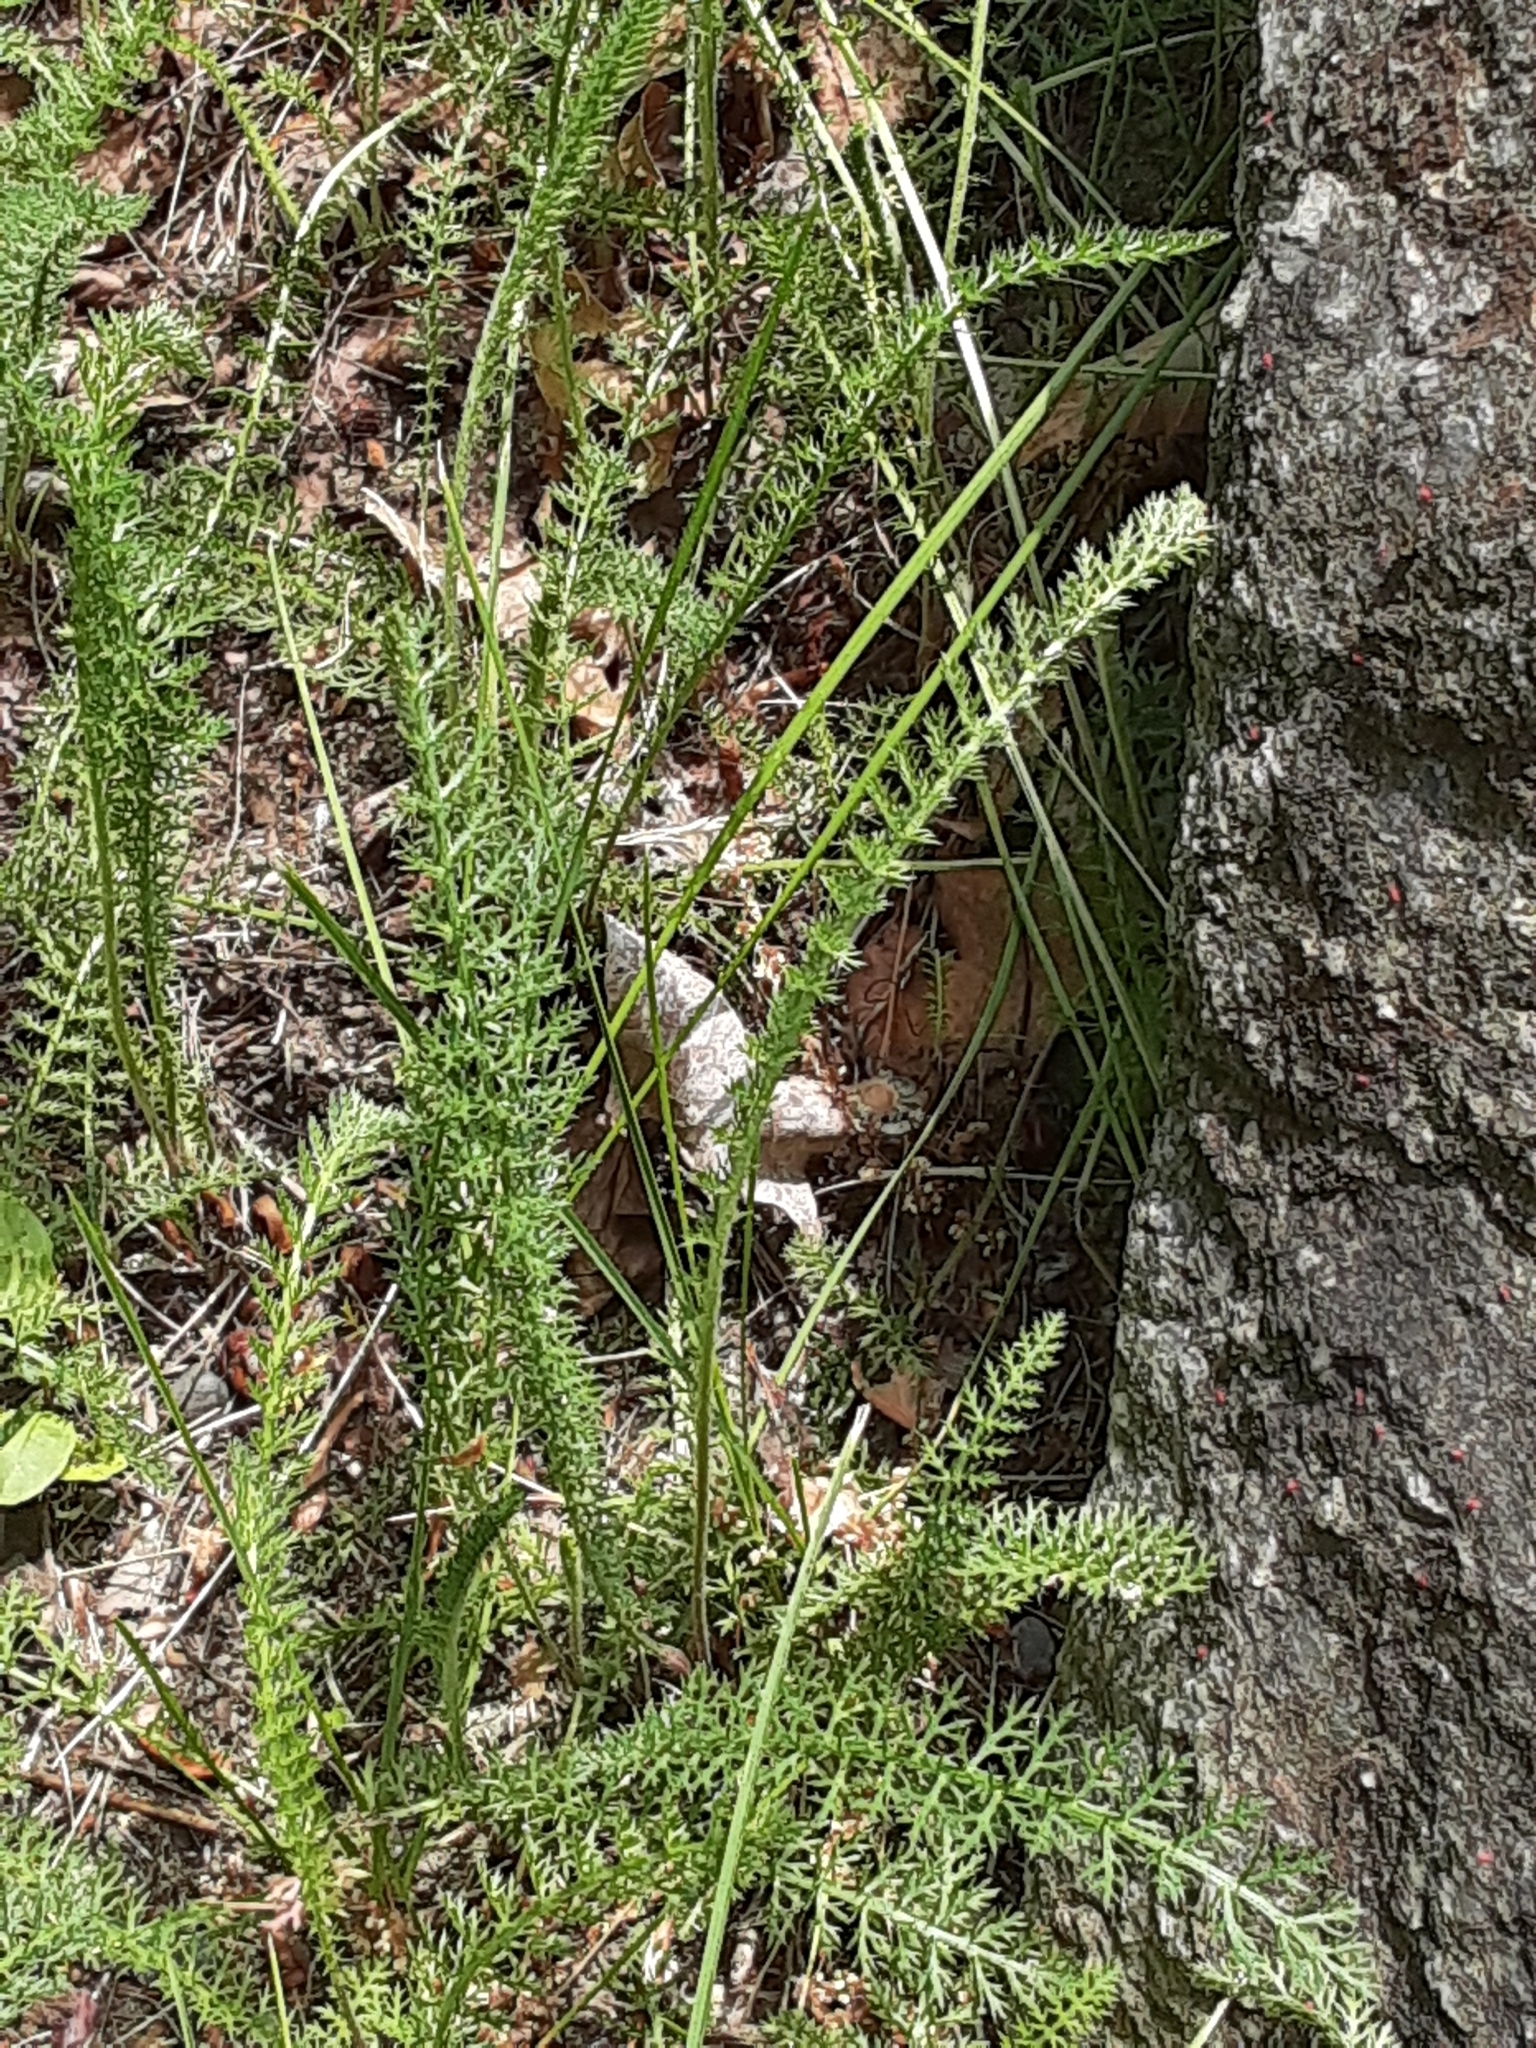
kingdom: Plantae
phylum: Tracheophyta
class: Magnoliopsida
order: Asterales
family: Asteraceae
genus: Achillea
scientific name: Achillea millefolium
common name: Yarrow
